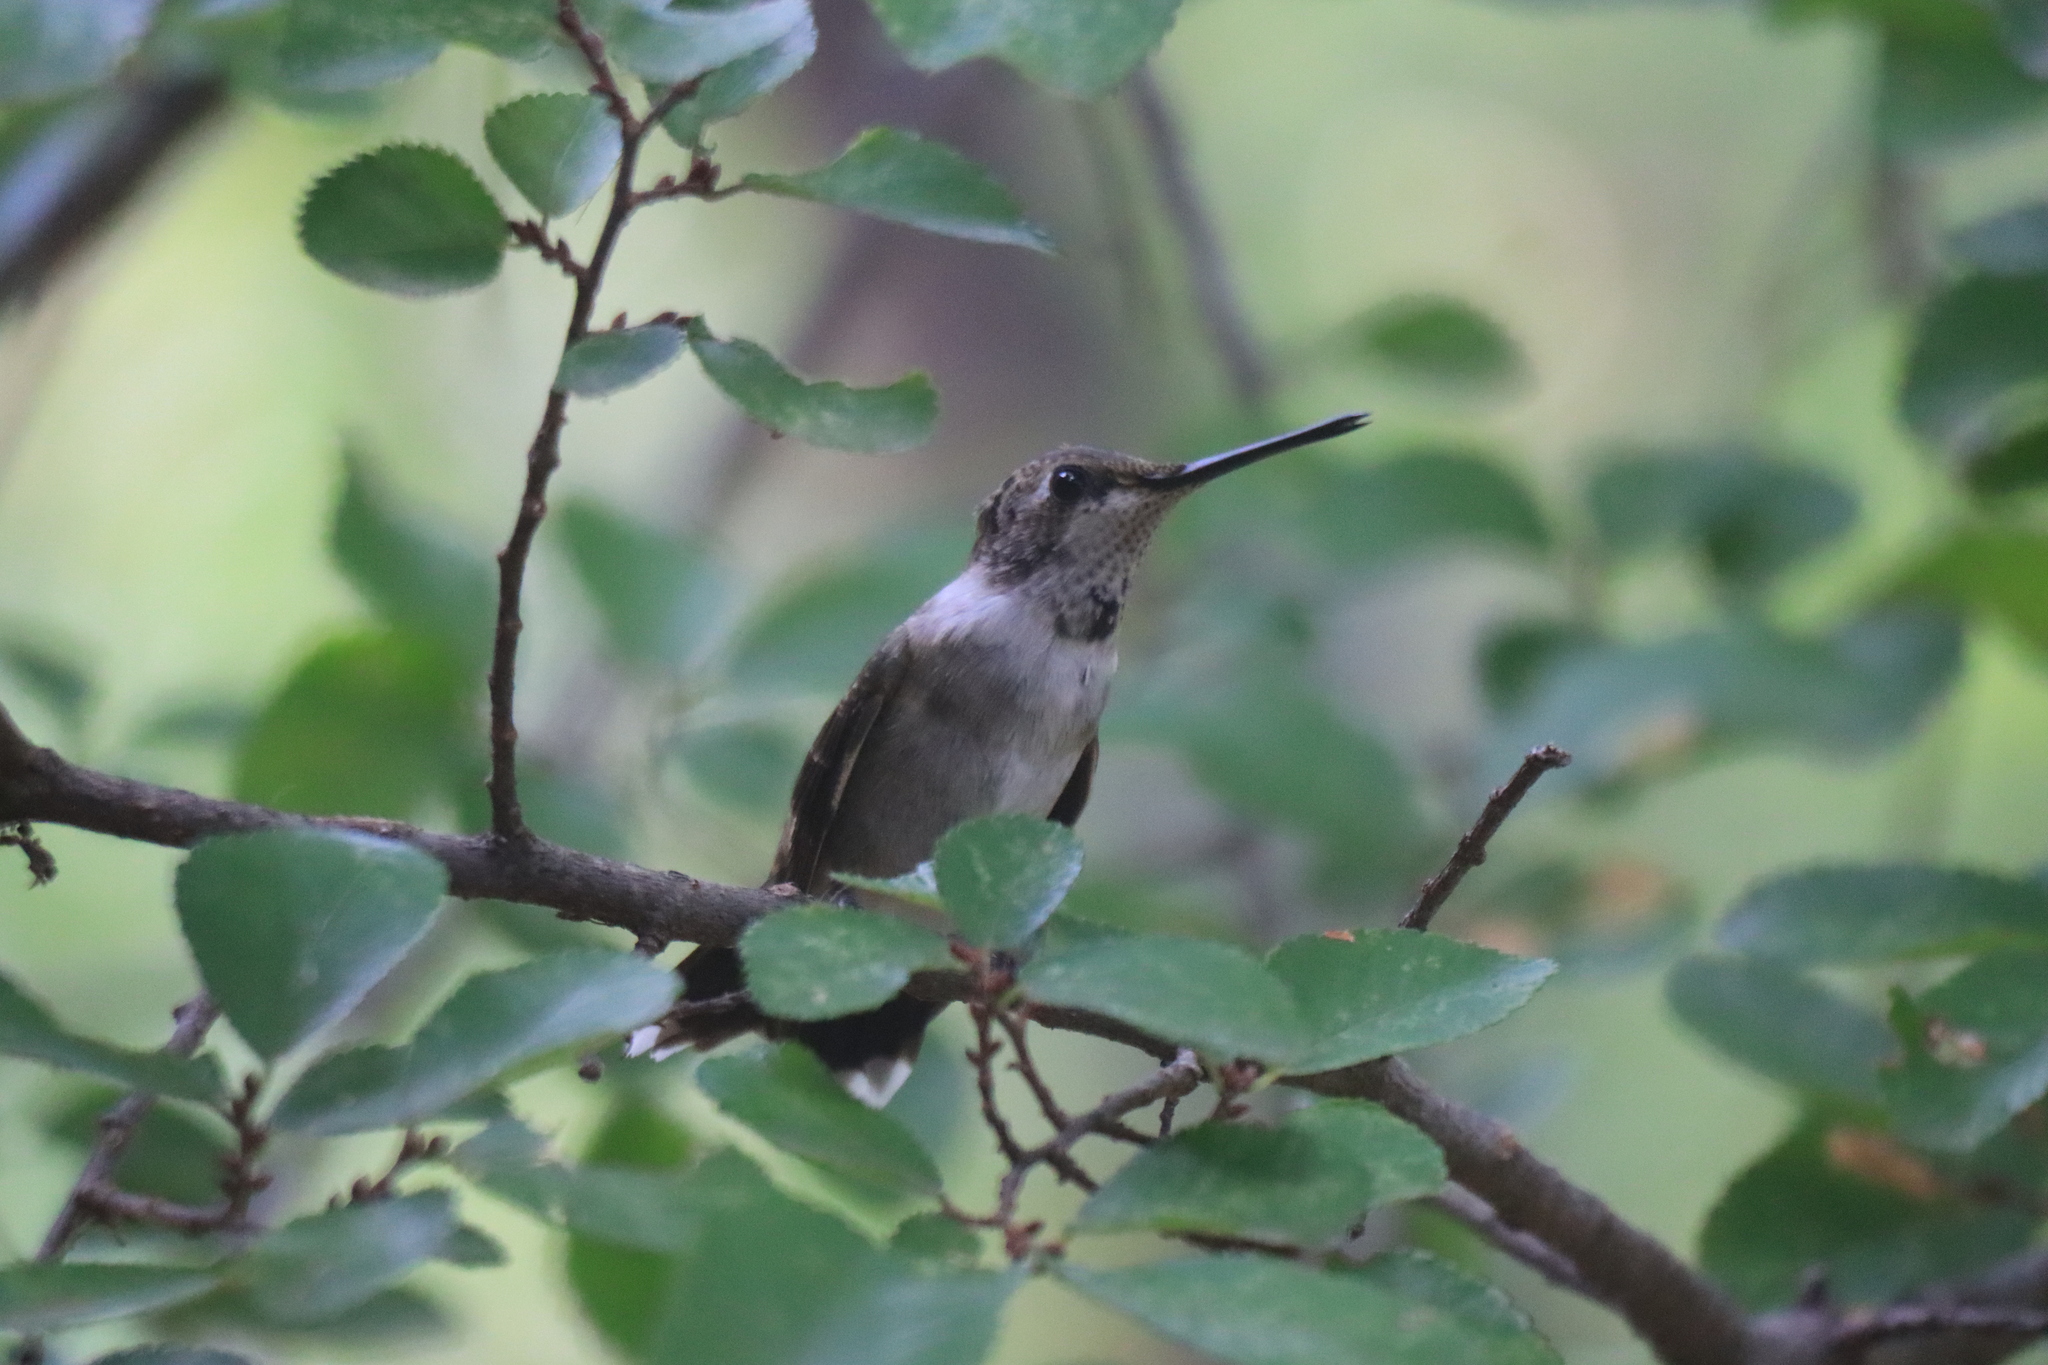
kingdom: Animalia
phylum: Chordata
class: Aves
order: Apodiformes
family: Trochilidae
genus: Archilochus
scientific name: Archilochus alexandri
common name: Black-chinned hummingbird
